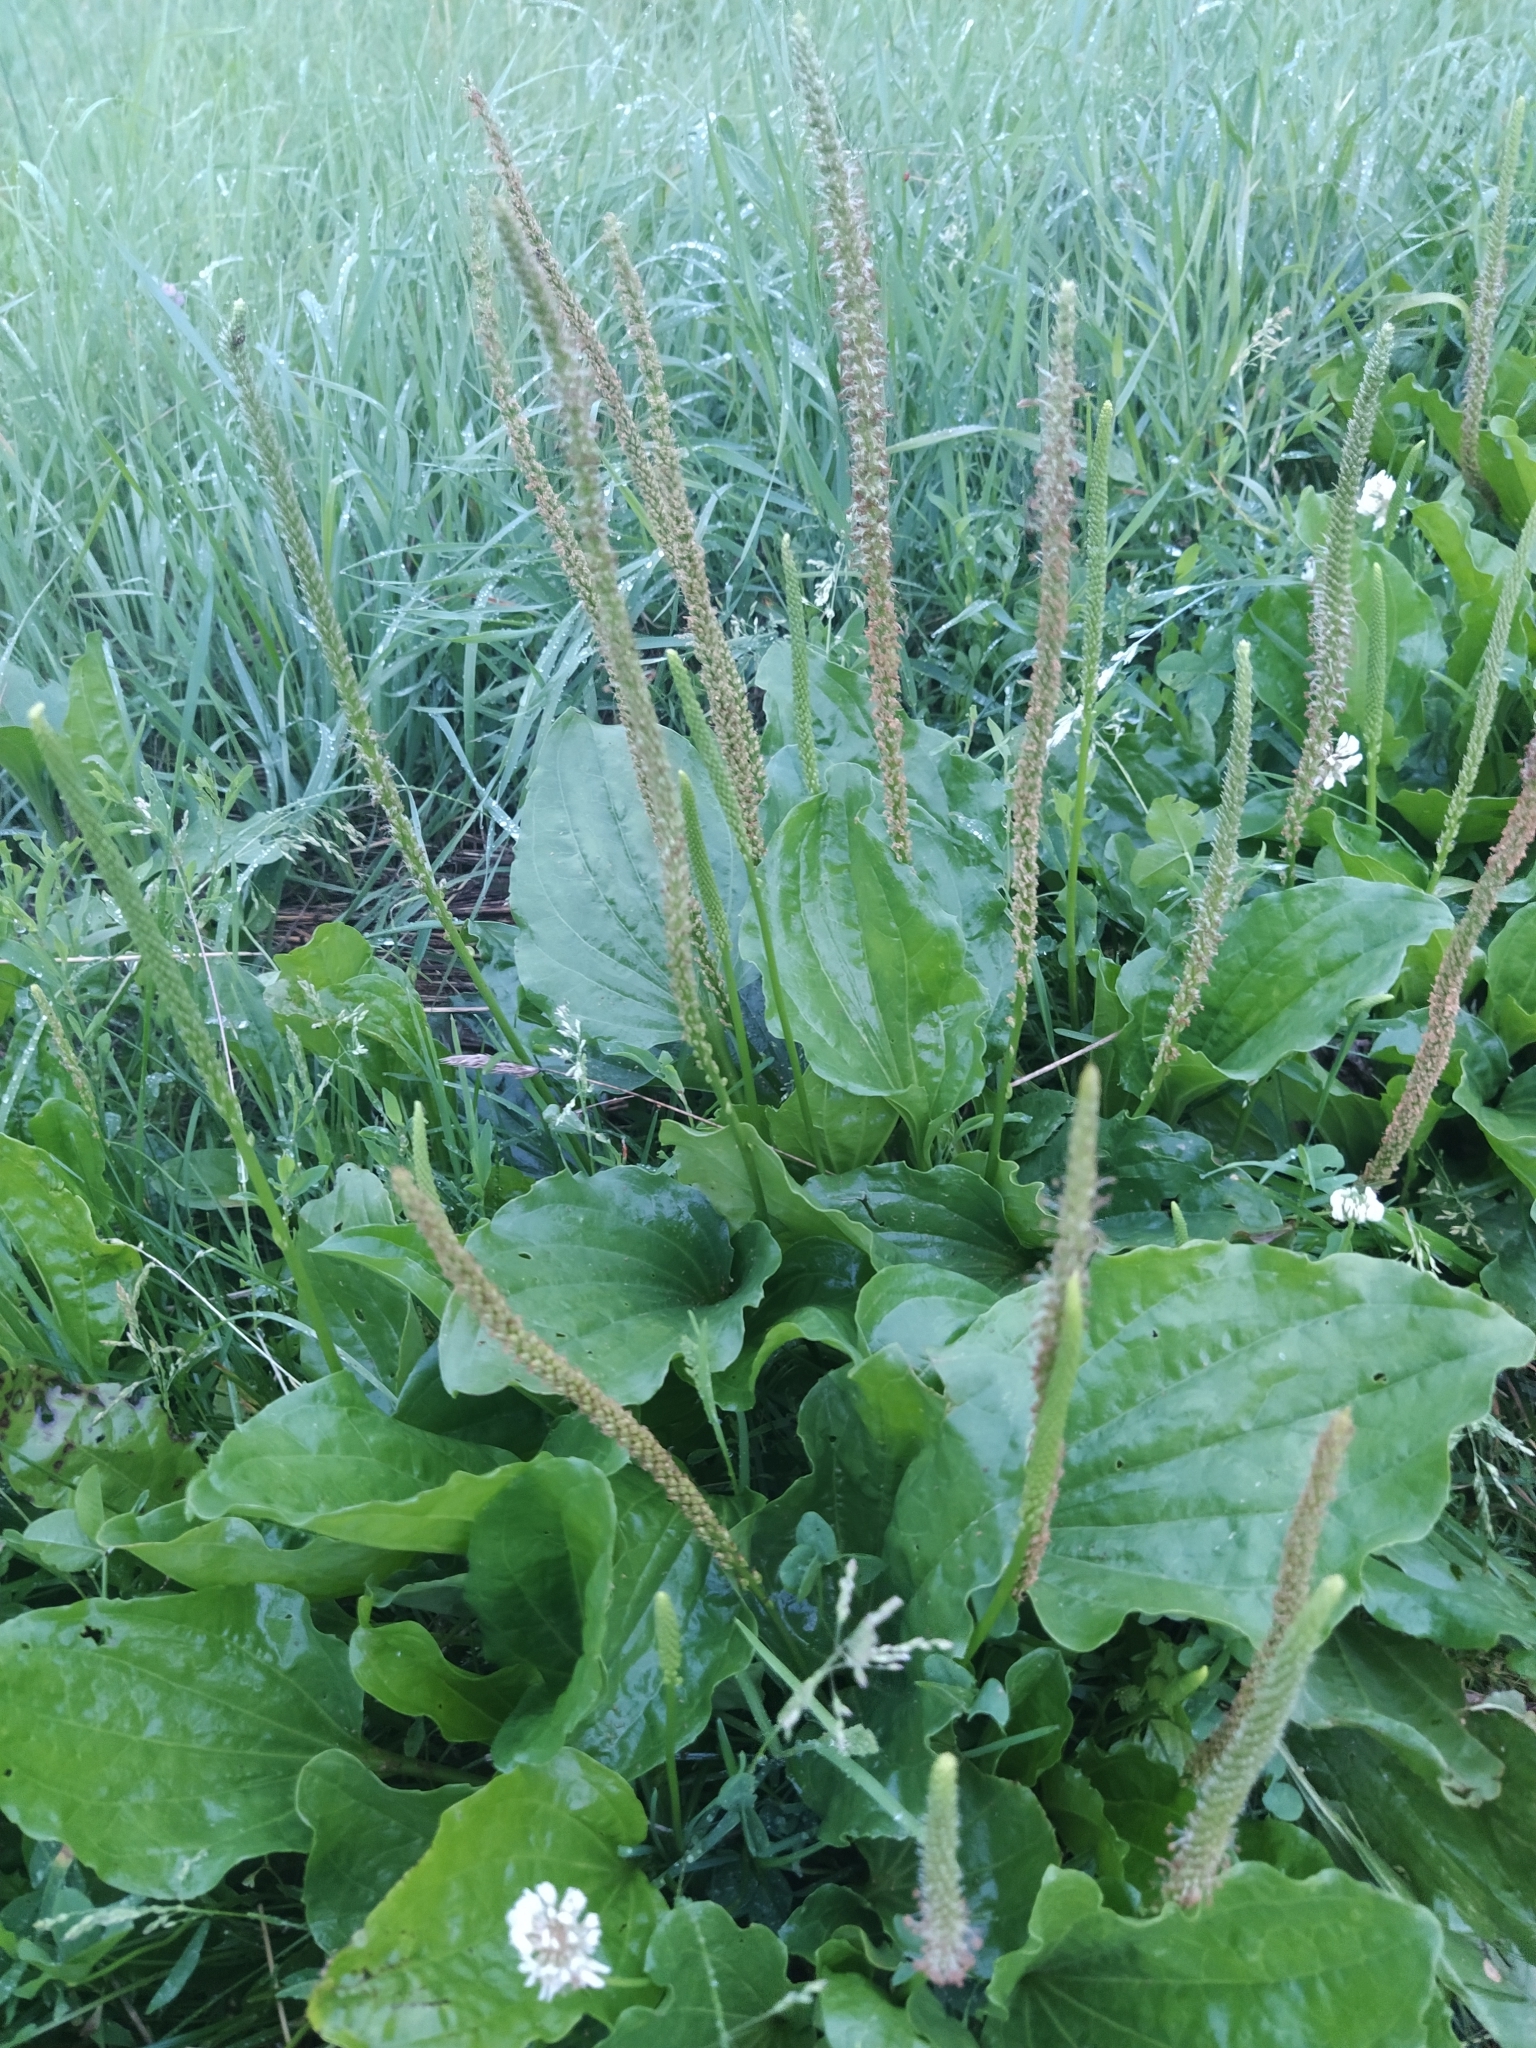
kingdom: Plantae
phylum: Tracheophyta
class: Magnoliopsida
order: Lamiales
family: Plantaginaceae
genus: Plantago
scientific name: Plantago major
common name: Common plantain
